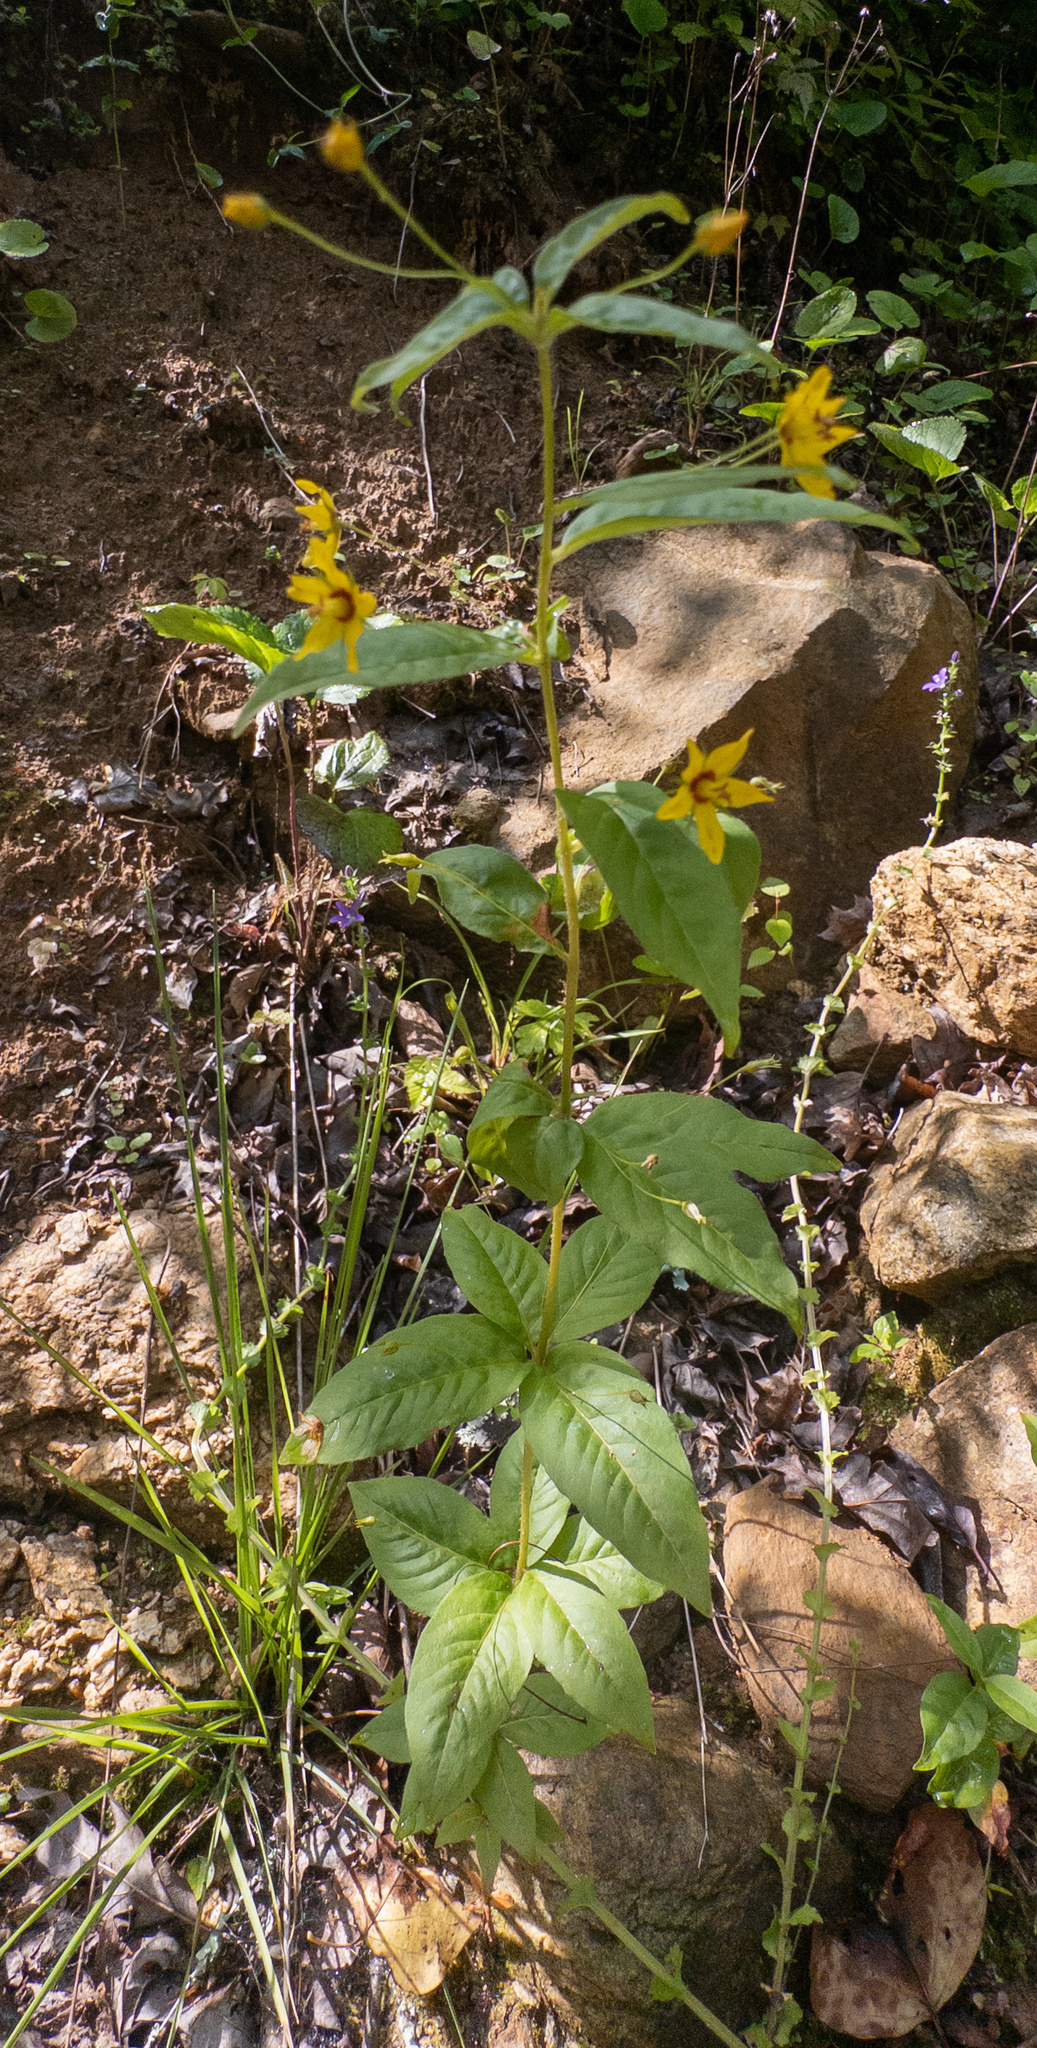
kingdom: Plantae
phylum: Tracheophyta
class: Magnoliopsida
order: Ericales
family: Primulaceae
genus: Lysimachia
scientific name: Lysimachia quadrifolia
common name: Whorled loosestrife
